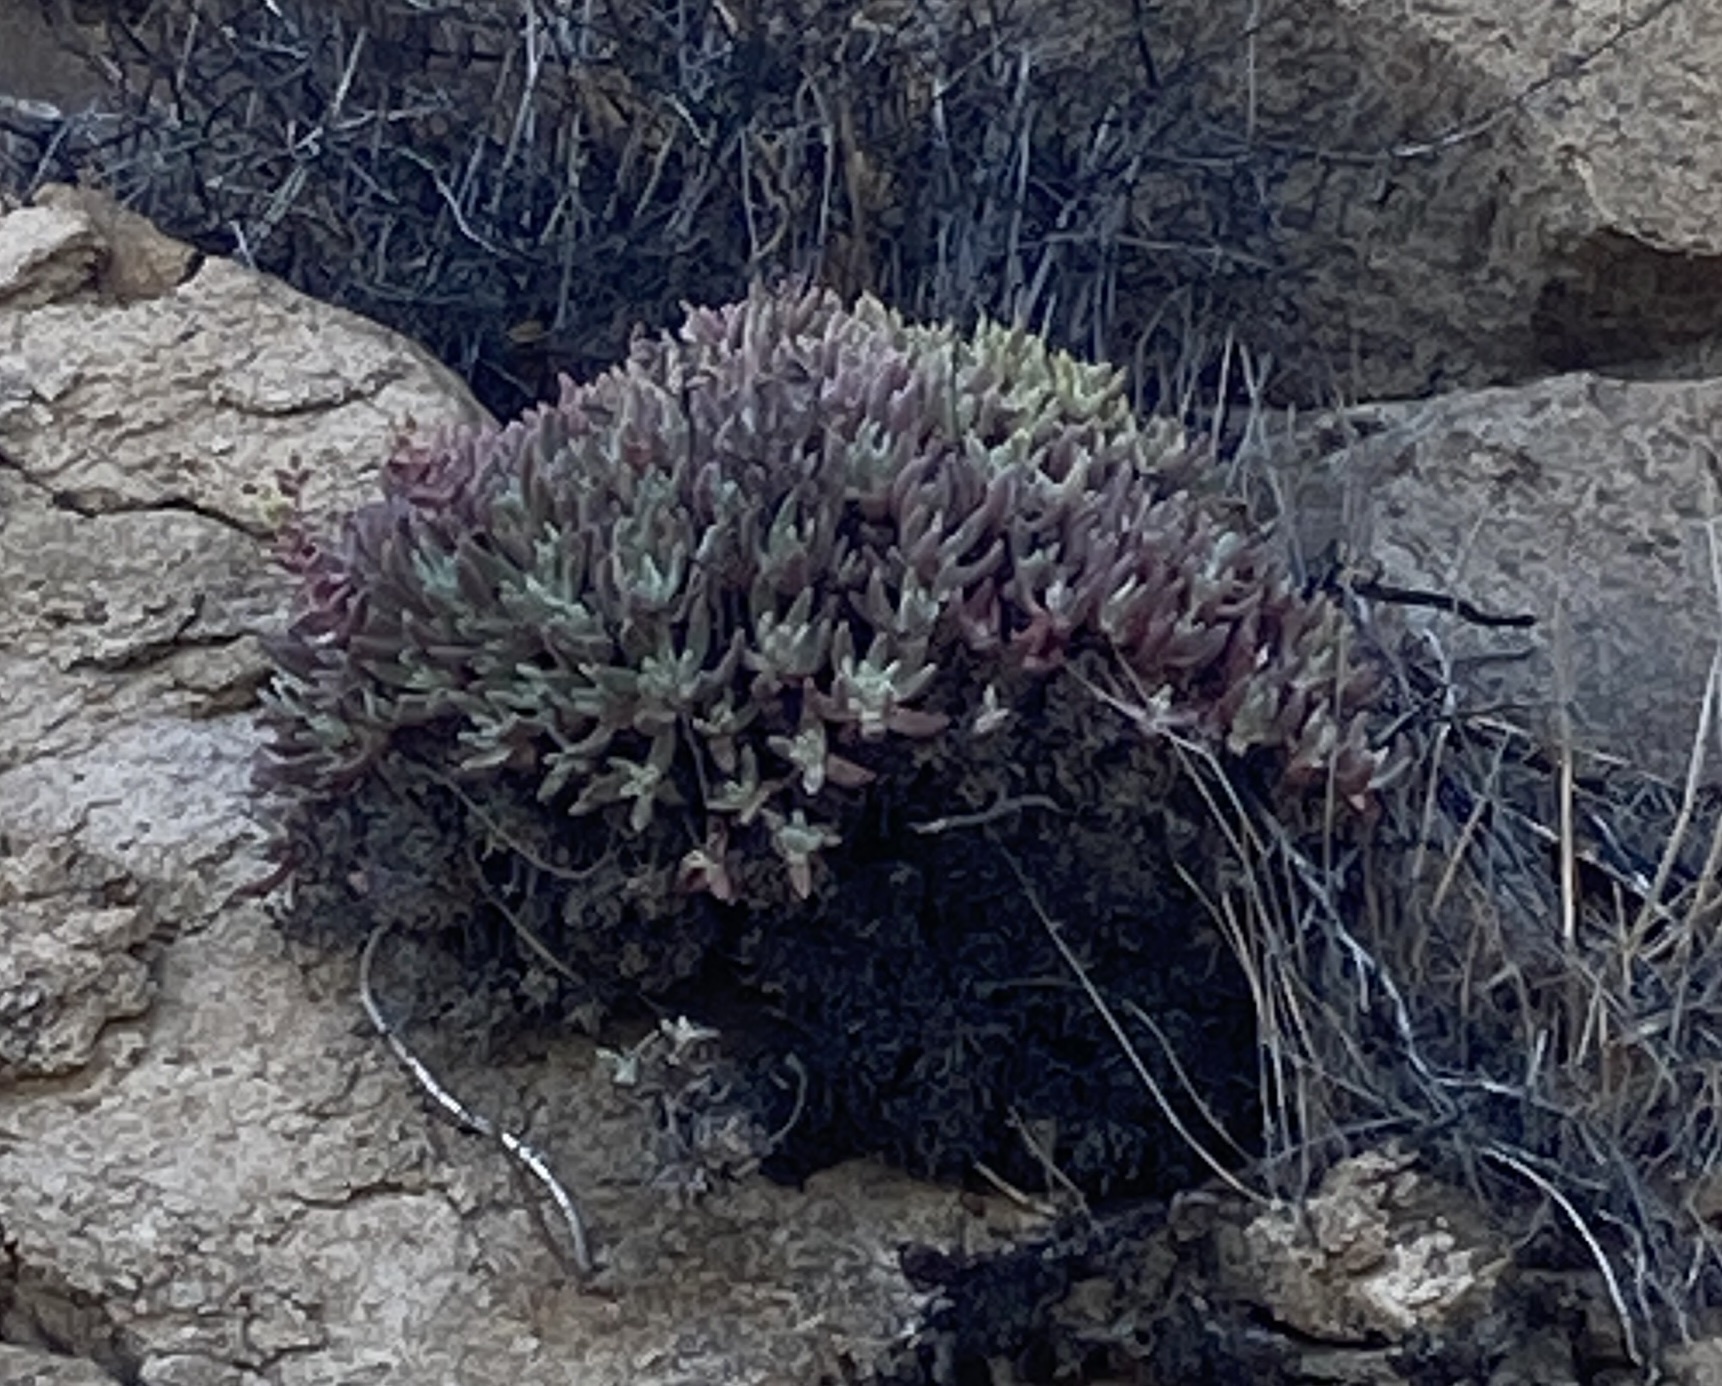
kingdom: Plantae
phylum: Tracheophyta
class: Magnoliopsida
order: Saxifragales
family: Crassulaceae
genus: Dudleya
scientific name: Dudleya caespitosa
